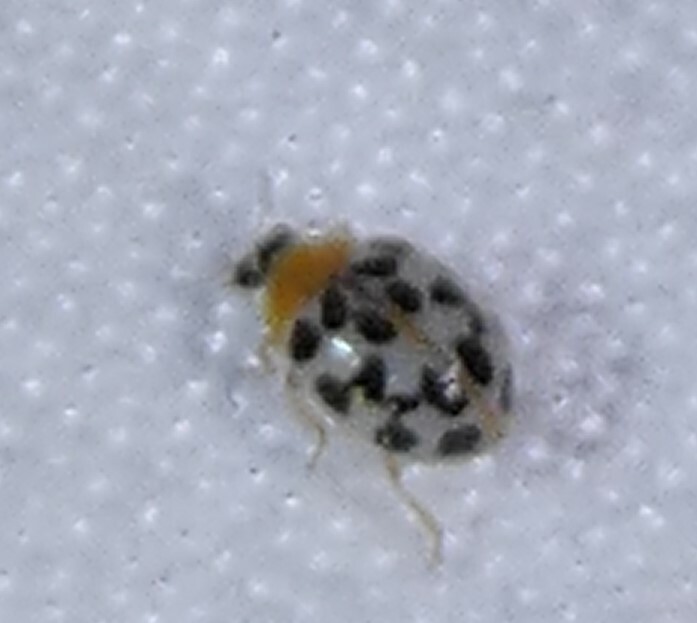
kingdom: Animalia
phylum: Arthropoda
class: Insecta
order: Coleoptera
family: Coccinellidae
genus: Psyllobora
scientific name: Psyllobora parvinotata
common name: Small-spotted psyllobora
